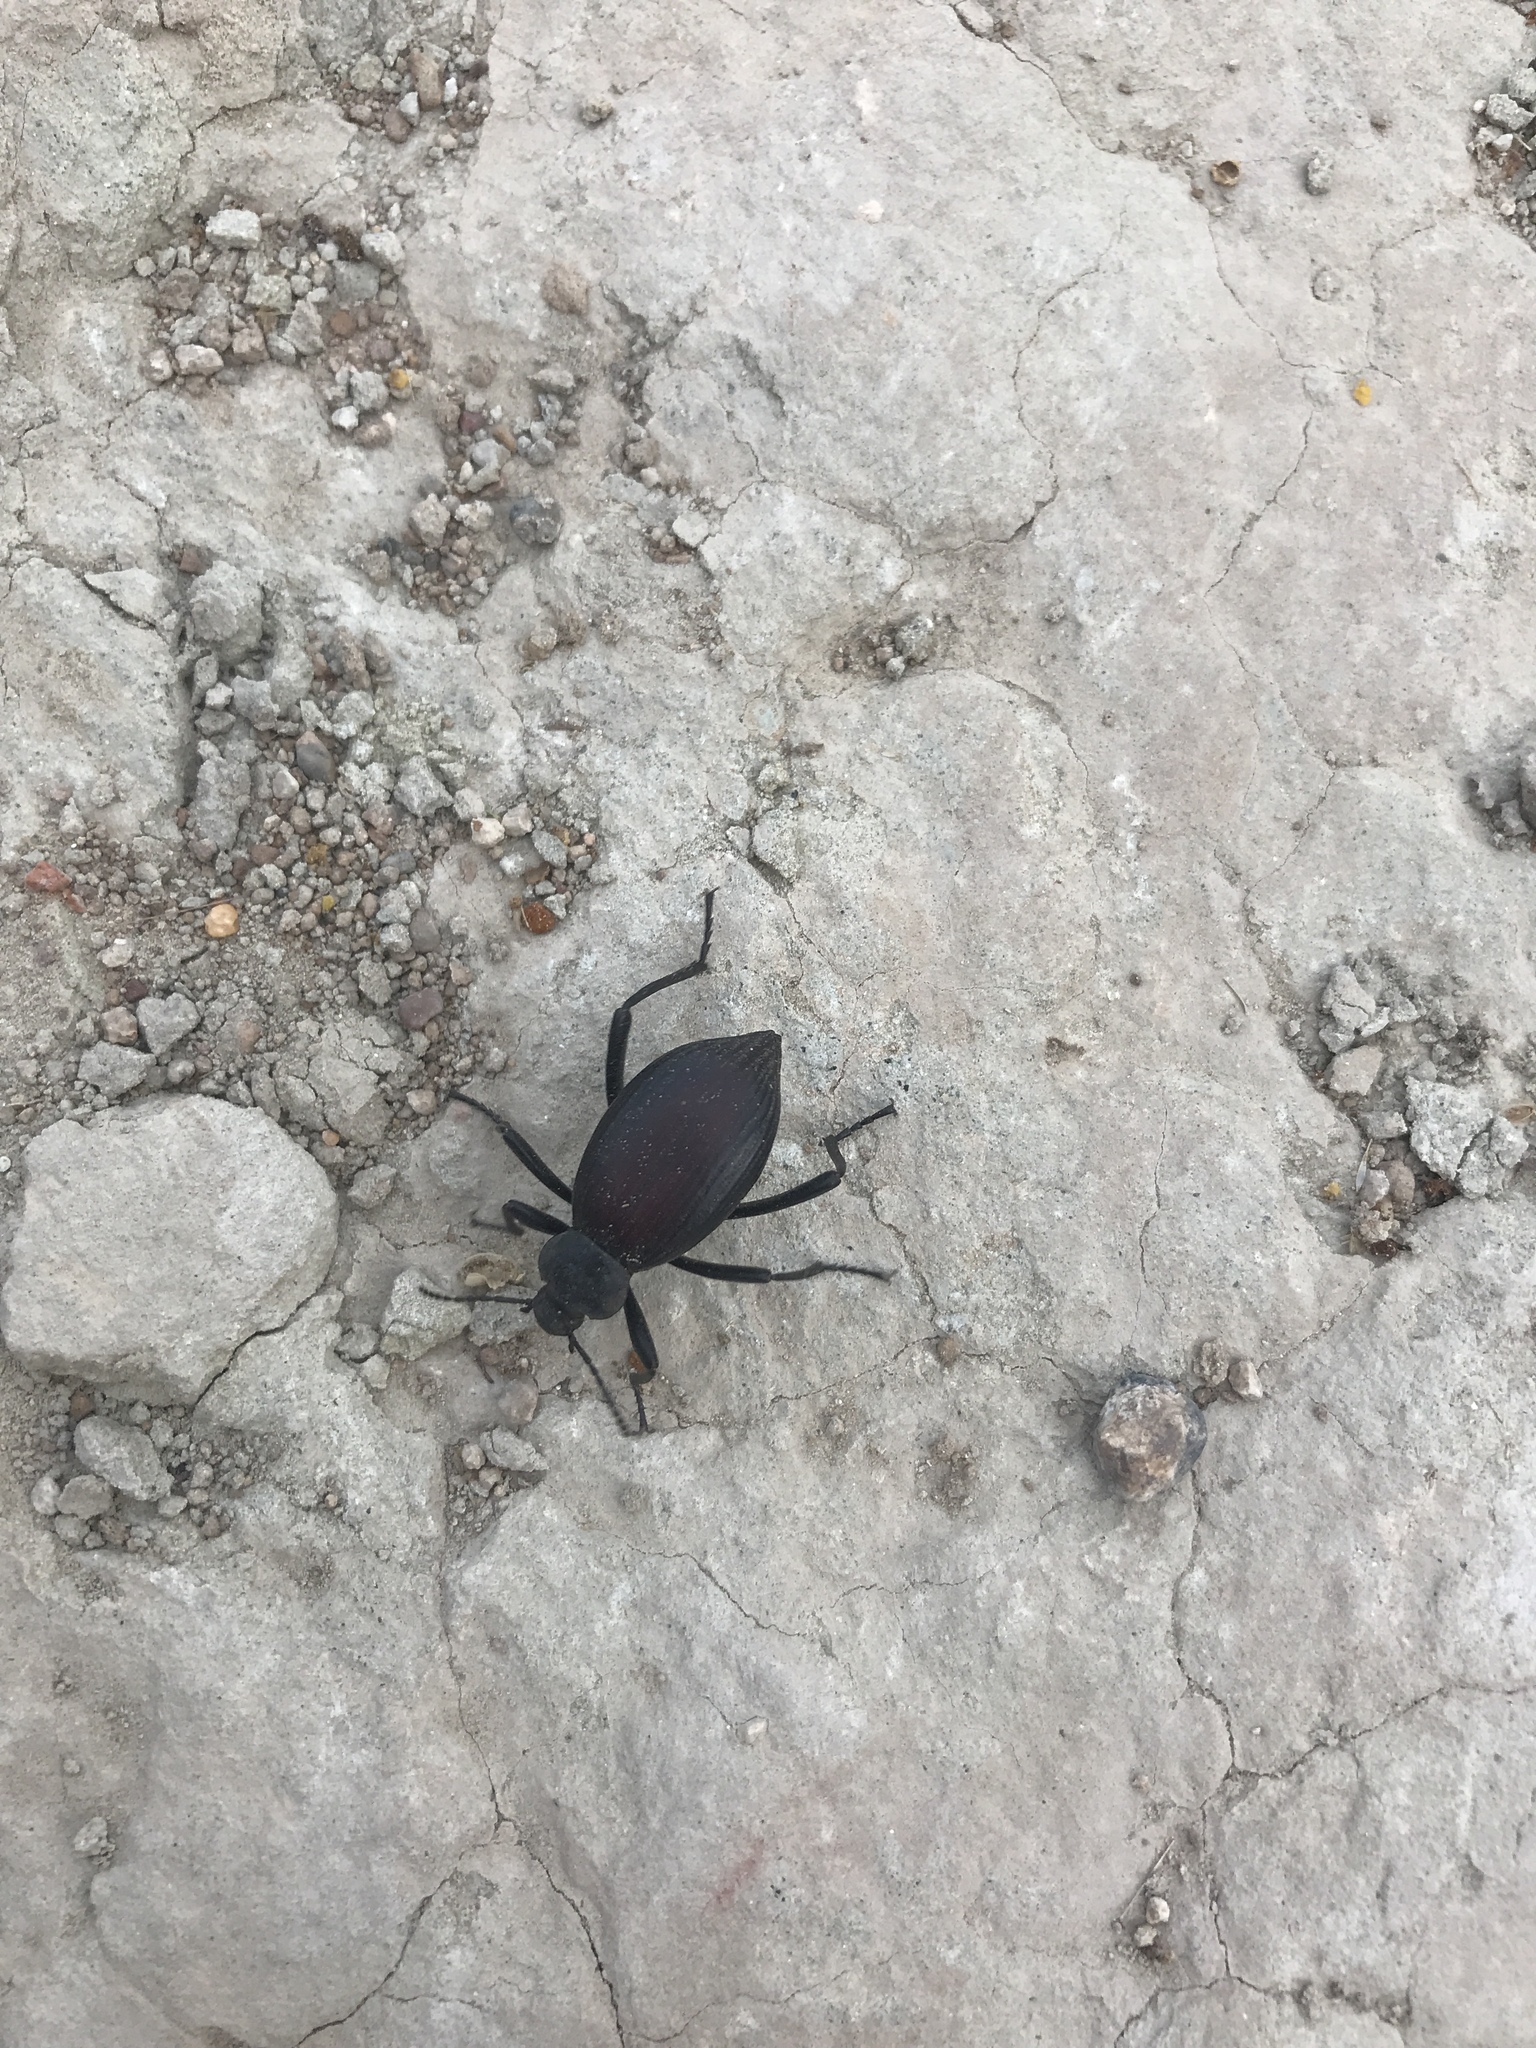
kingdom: Animalia
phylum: Arthropoda
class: Insecta
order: Coleoptera
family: Tenebrionidae
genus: Eleodes
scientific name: Eleodes hispilabris
